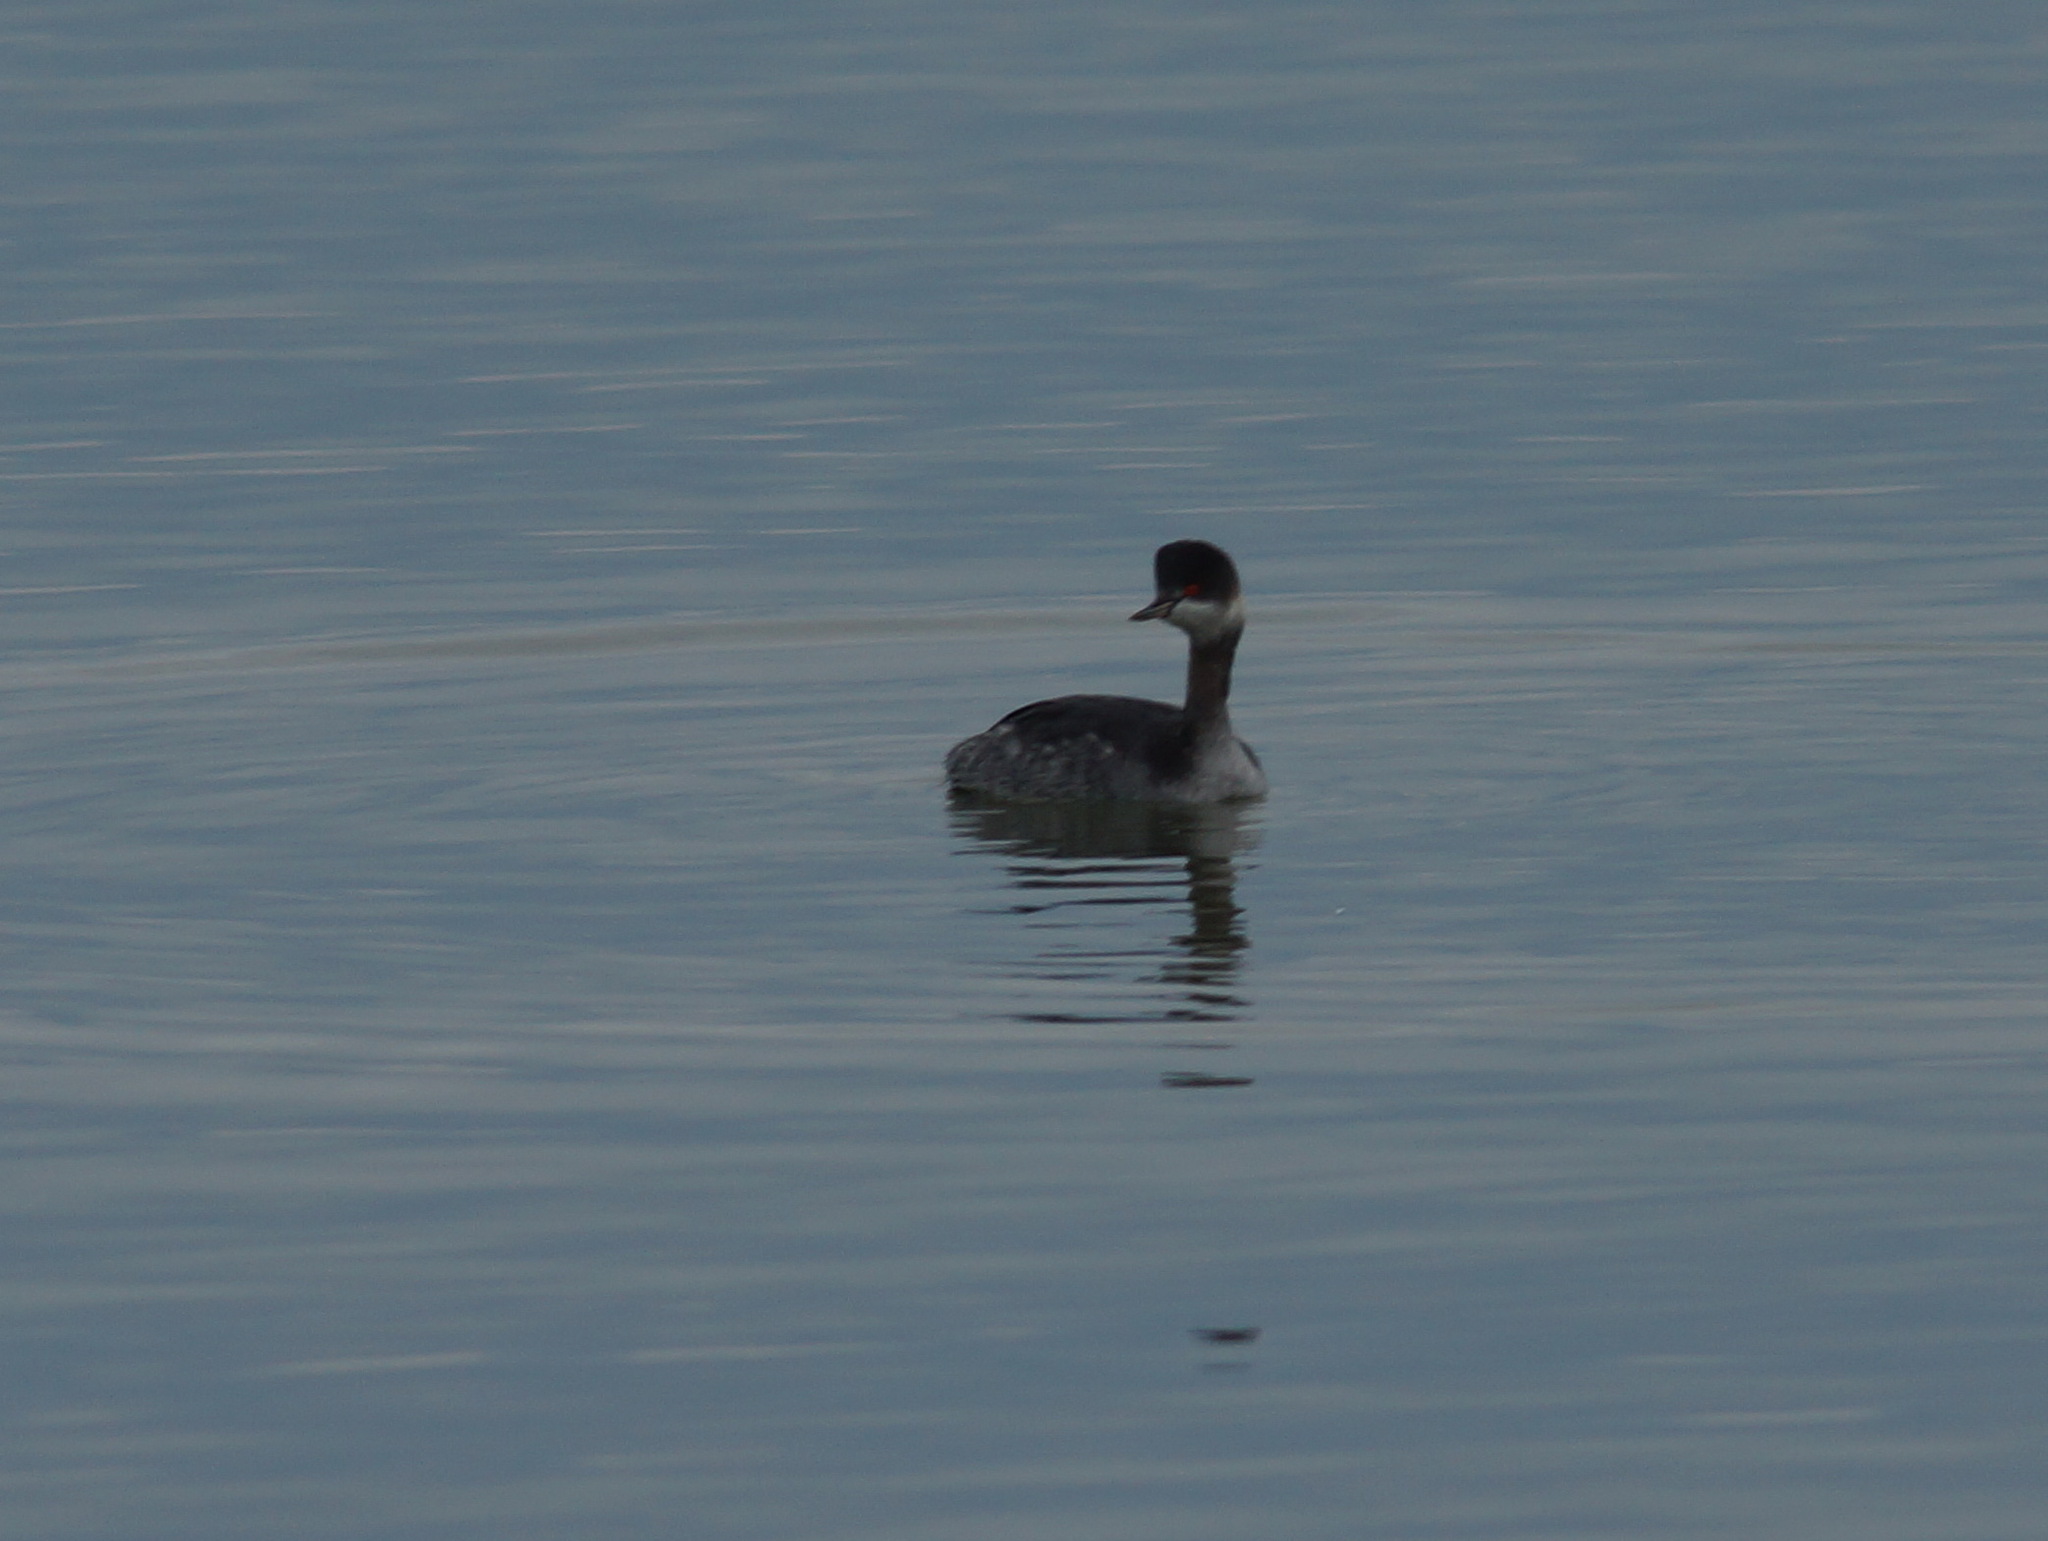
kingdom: Animalia
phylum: Chordata
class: Aves
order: Podicipediformes
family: Podicipedidae
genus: Podiceps
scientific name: Podiceps nigricollis
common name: Black-necked grebe
